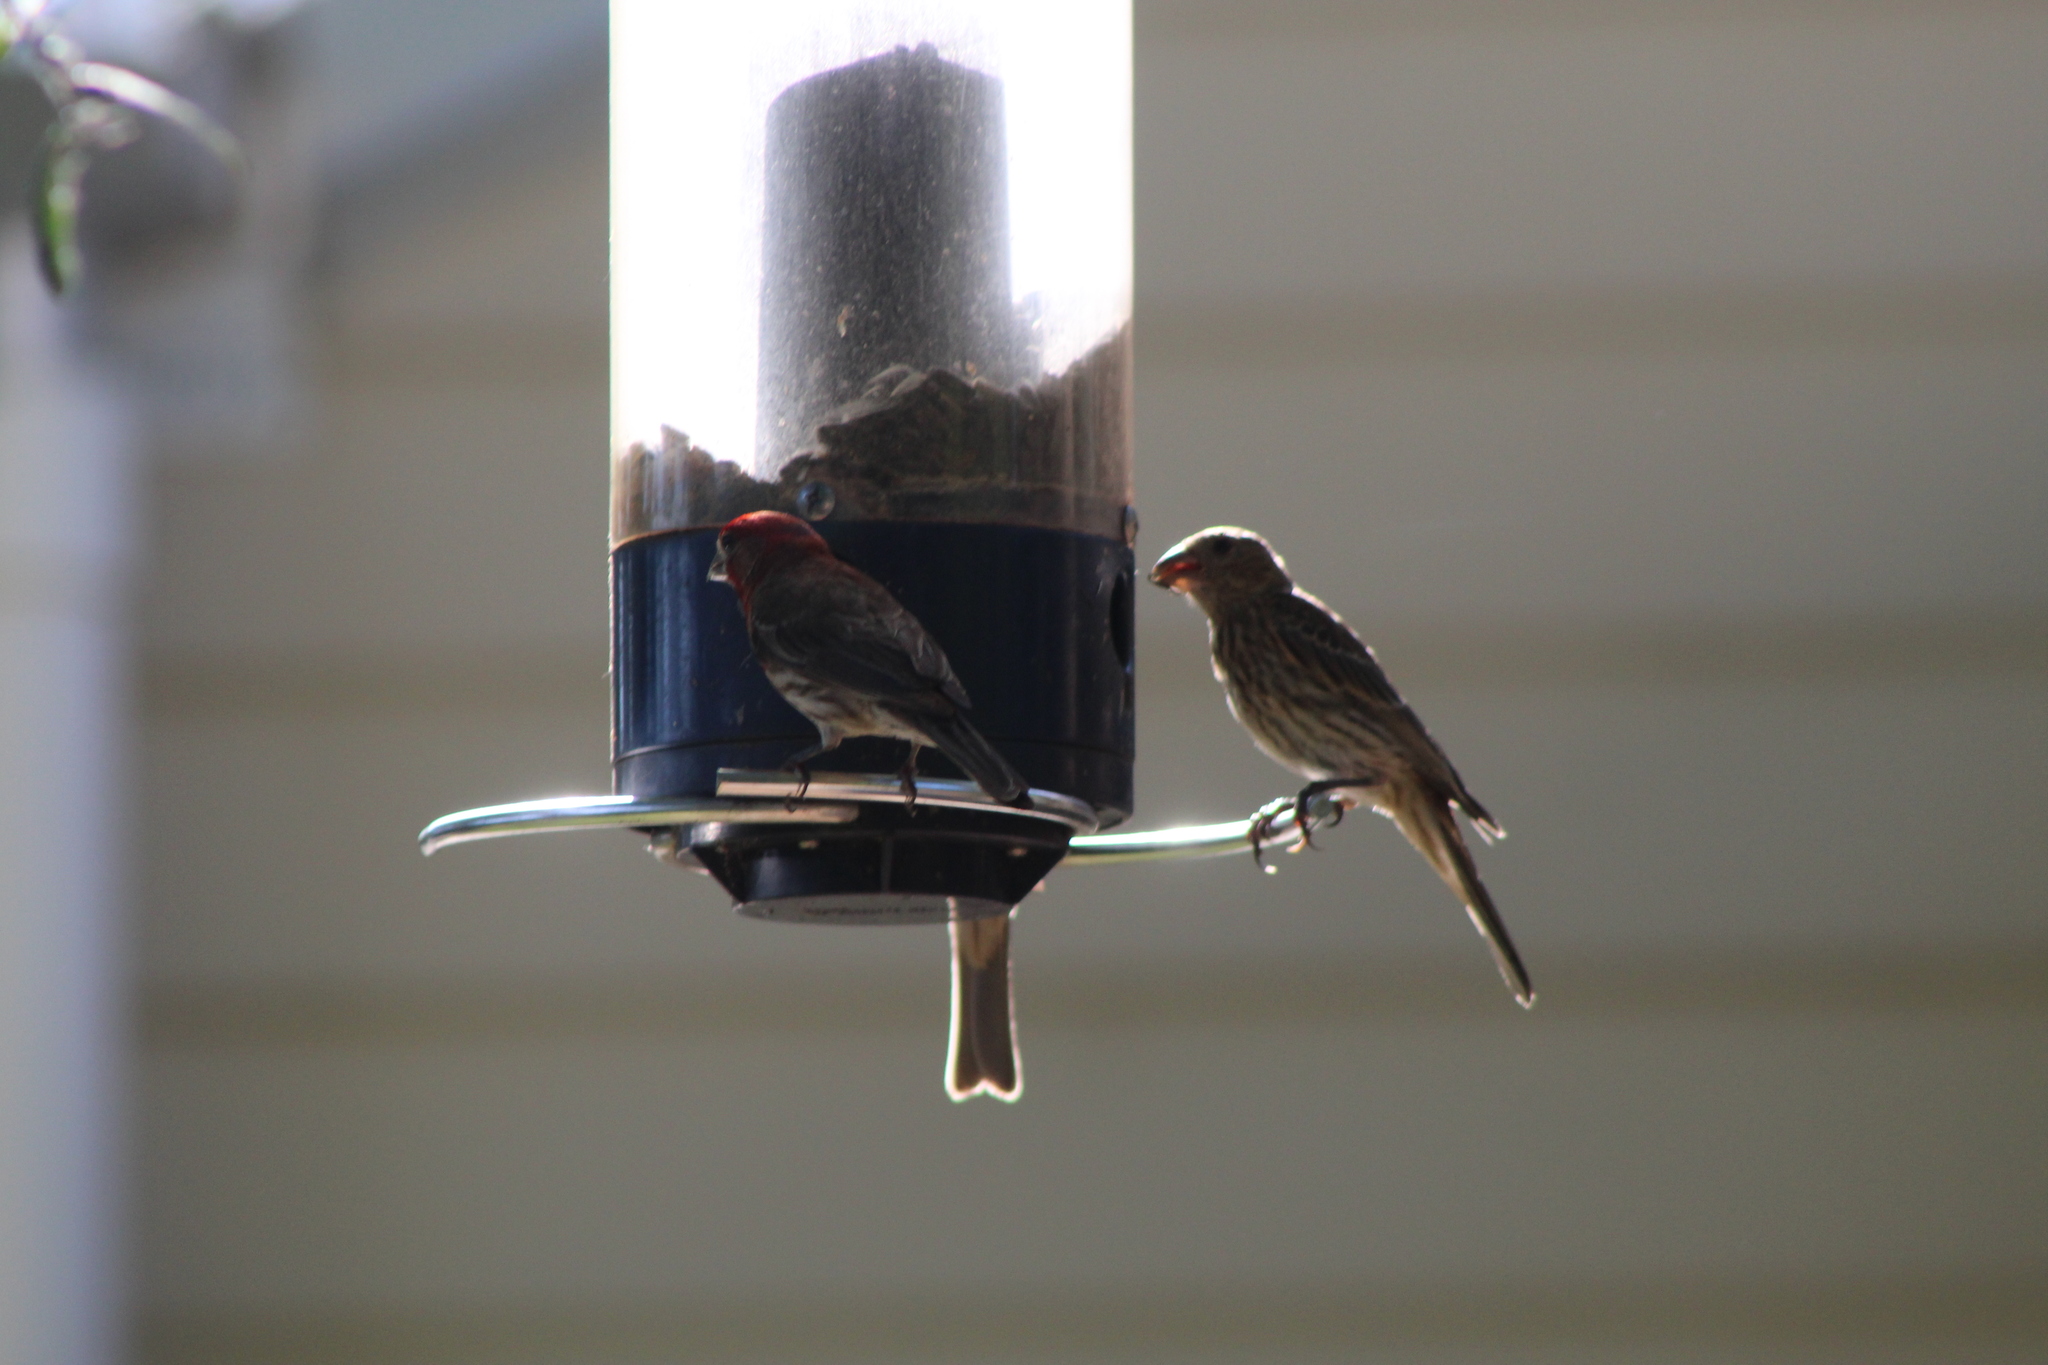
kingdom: Animalia
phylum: Chordata
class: Aves
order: Passeriformes
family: Fringillidae
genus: Haemorhous
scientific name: Haemorhous mexicanus
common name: House finch
